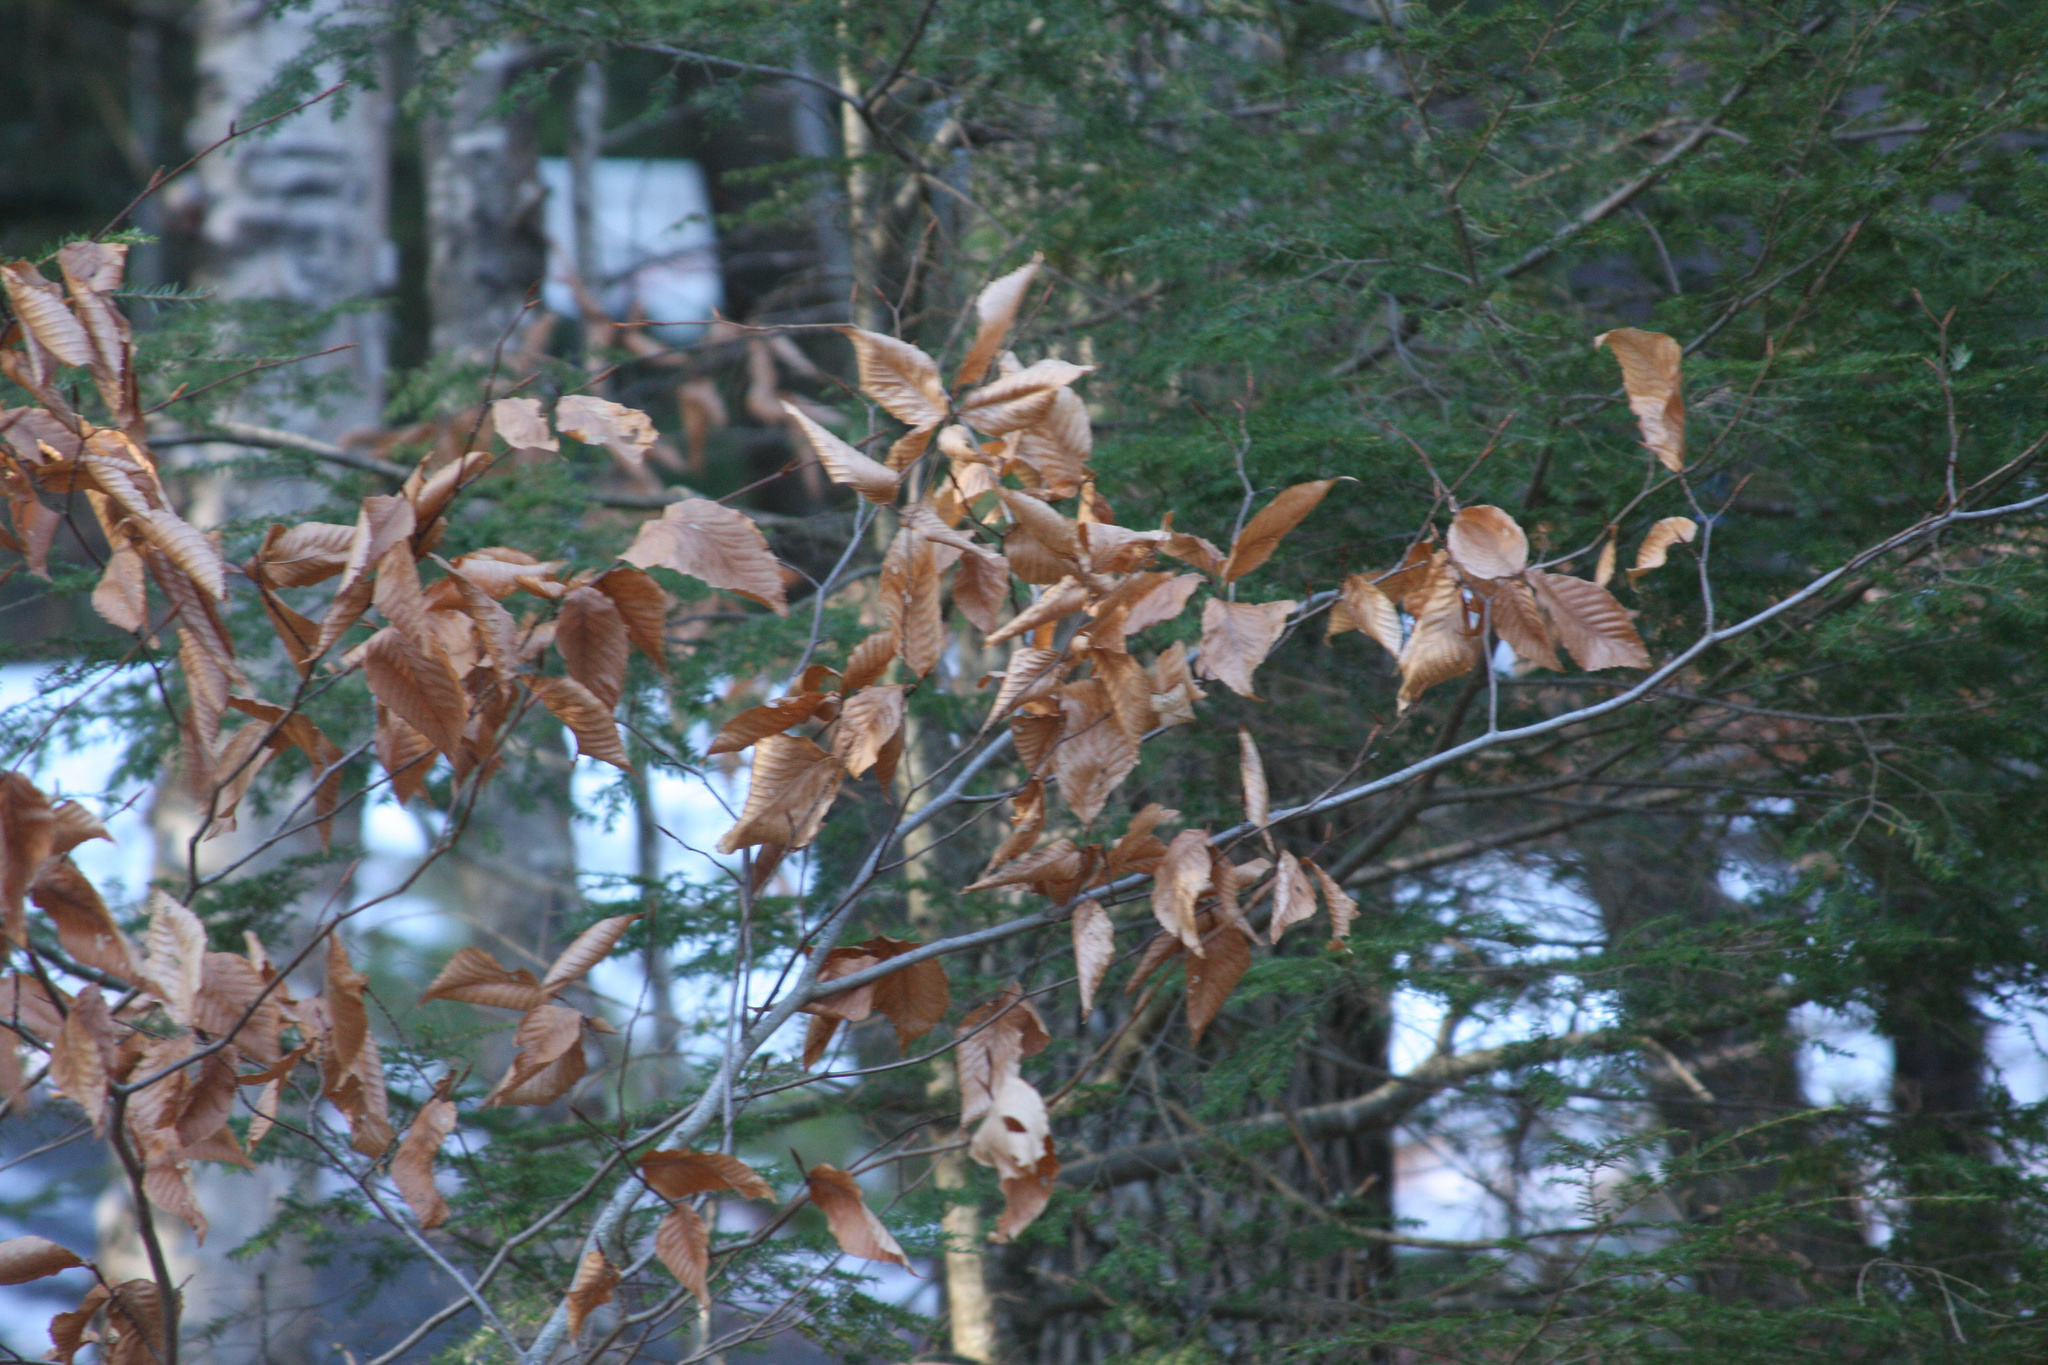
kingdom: Plantae
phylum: Tracheophyta
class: Magnoliopsida
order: Fagales
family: Fagaceae
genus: Fagus
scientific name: Fagus grandifolia
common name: American beech
